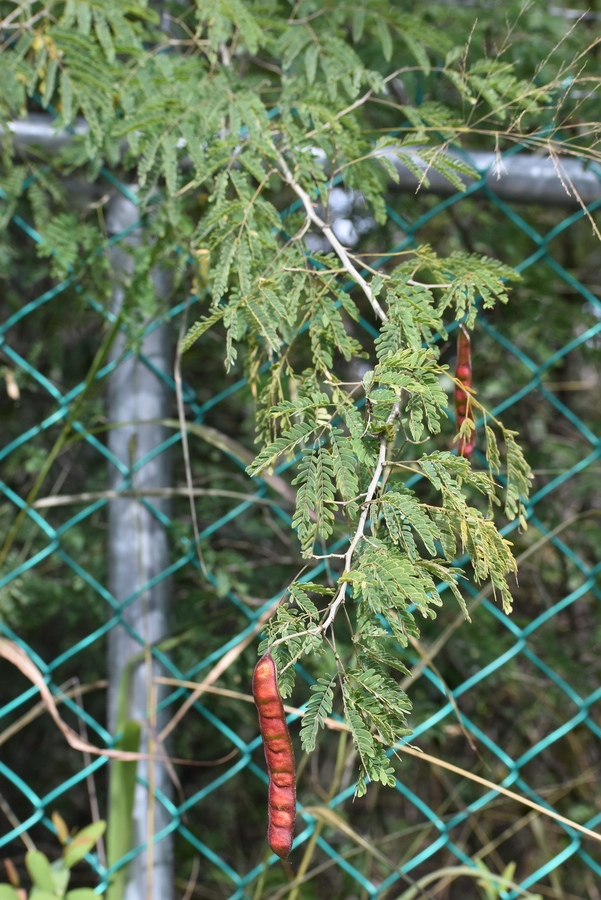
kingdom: Plantae
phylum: Tracheophyta
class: Magnoliopsida
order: Fabales
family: Fabaceae
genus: Havardia
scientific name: Havardia pallens
